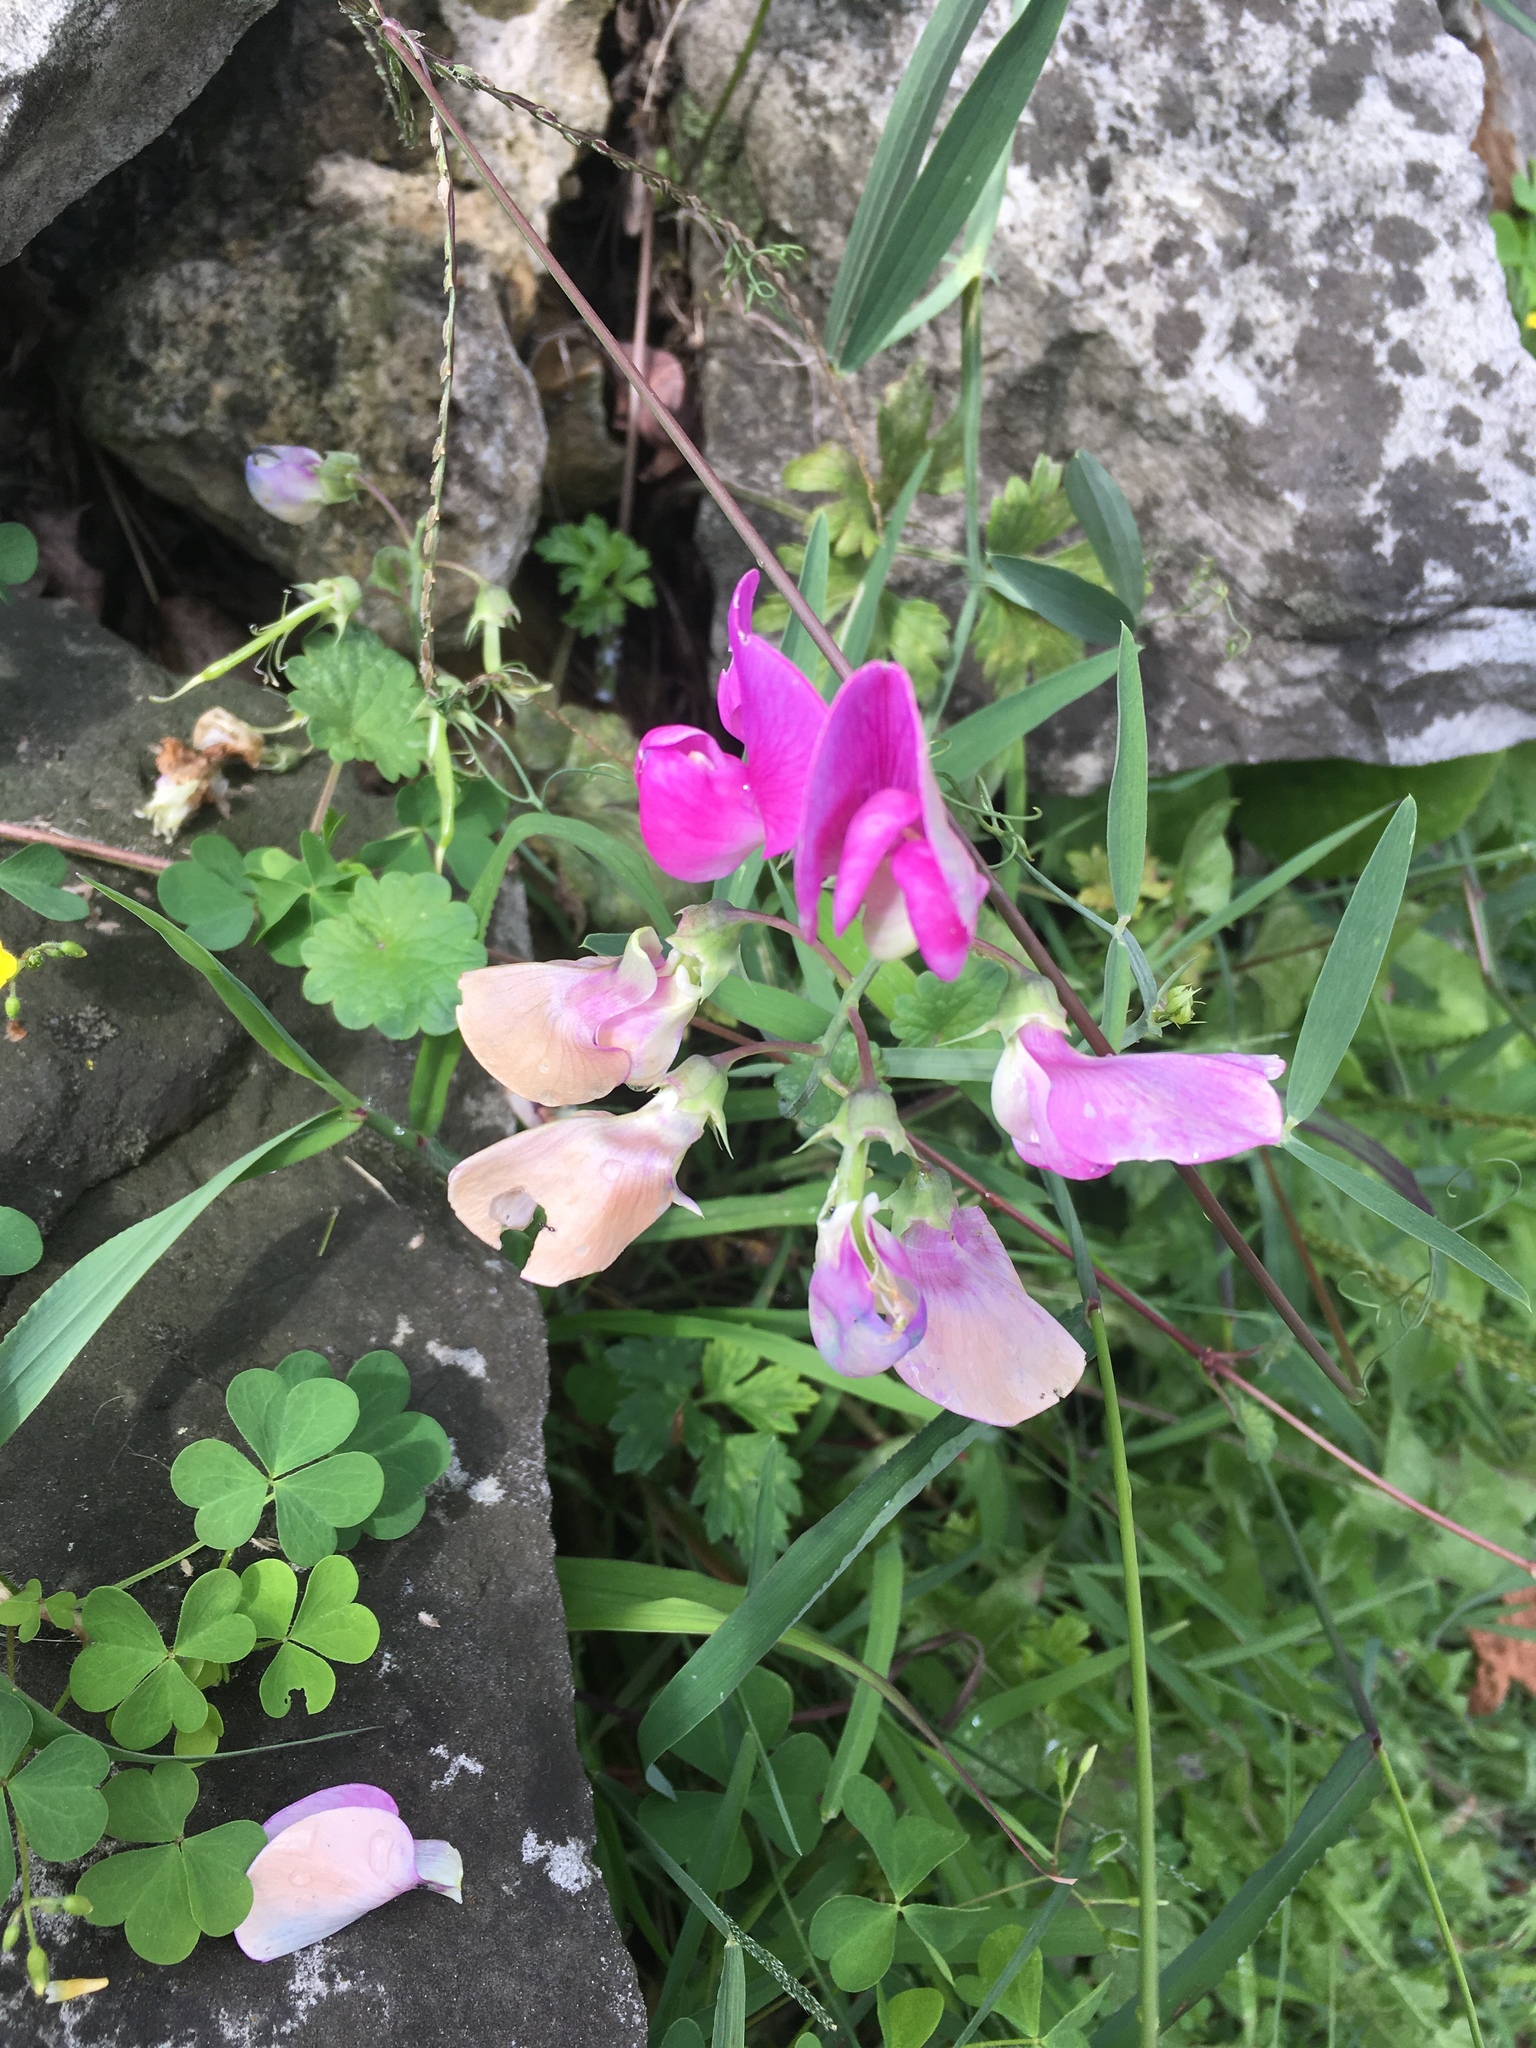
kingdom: Plantae
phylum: Tracheophyta
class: Magnoliopsida
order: Fabales
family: Fabaceae
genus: Lathyrus
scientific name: Lathyrus latifolius
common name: Perennial pea
